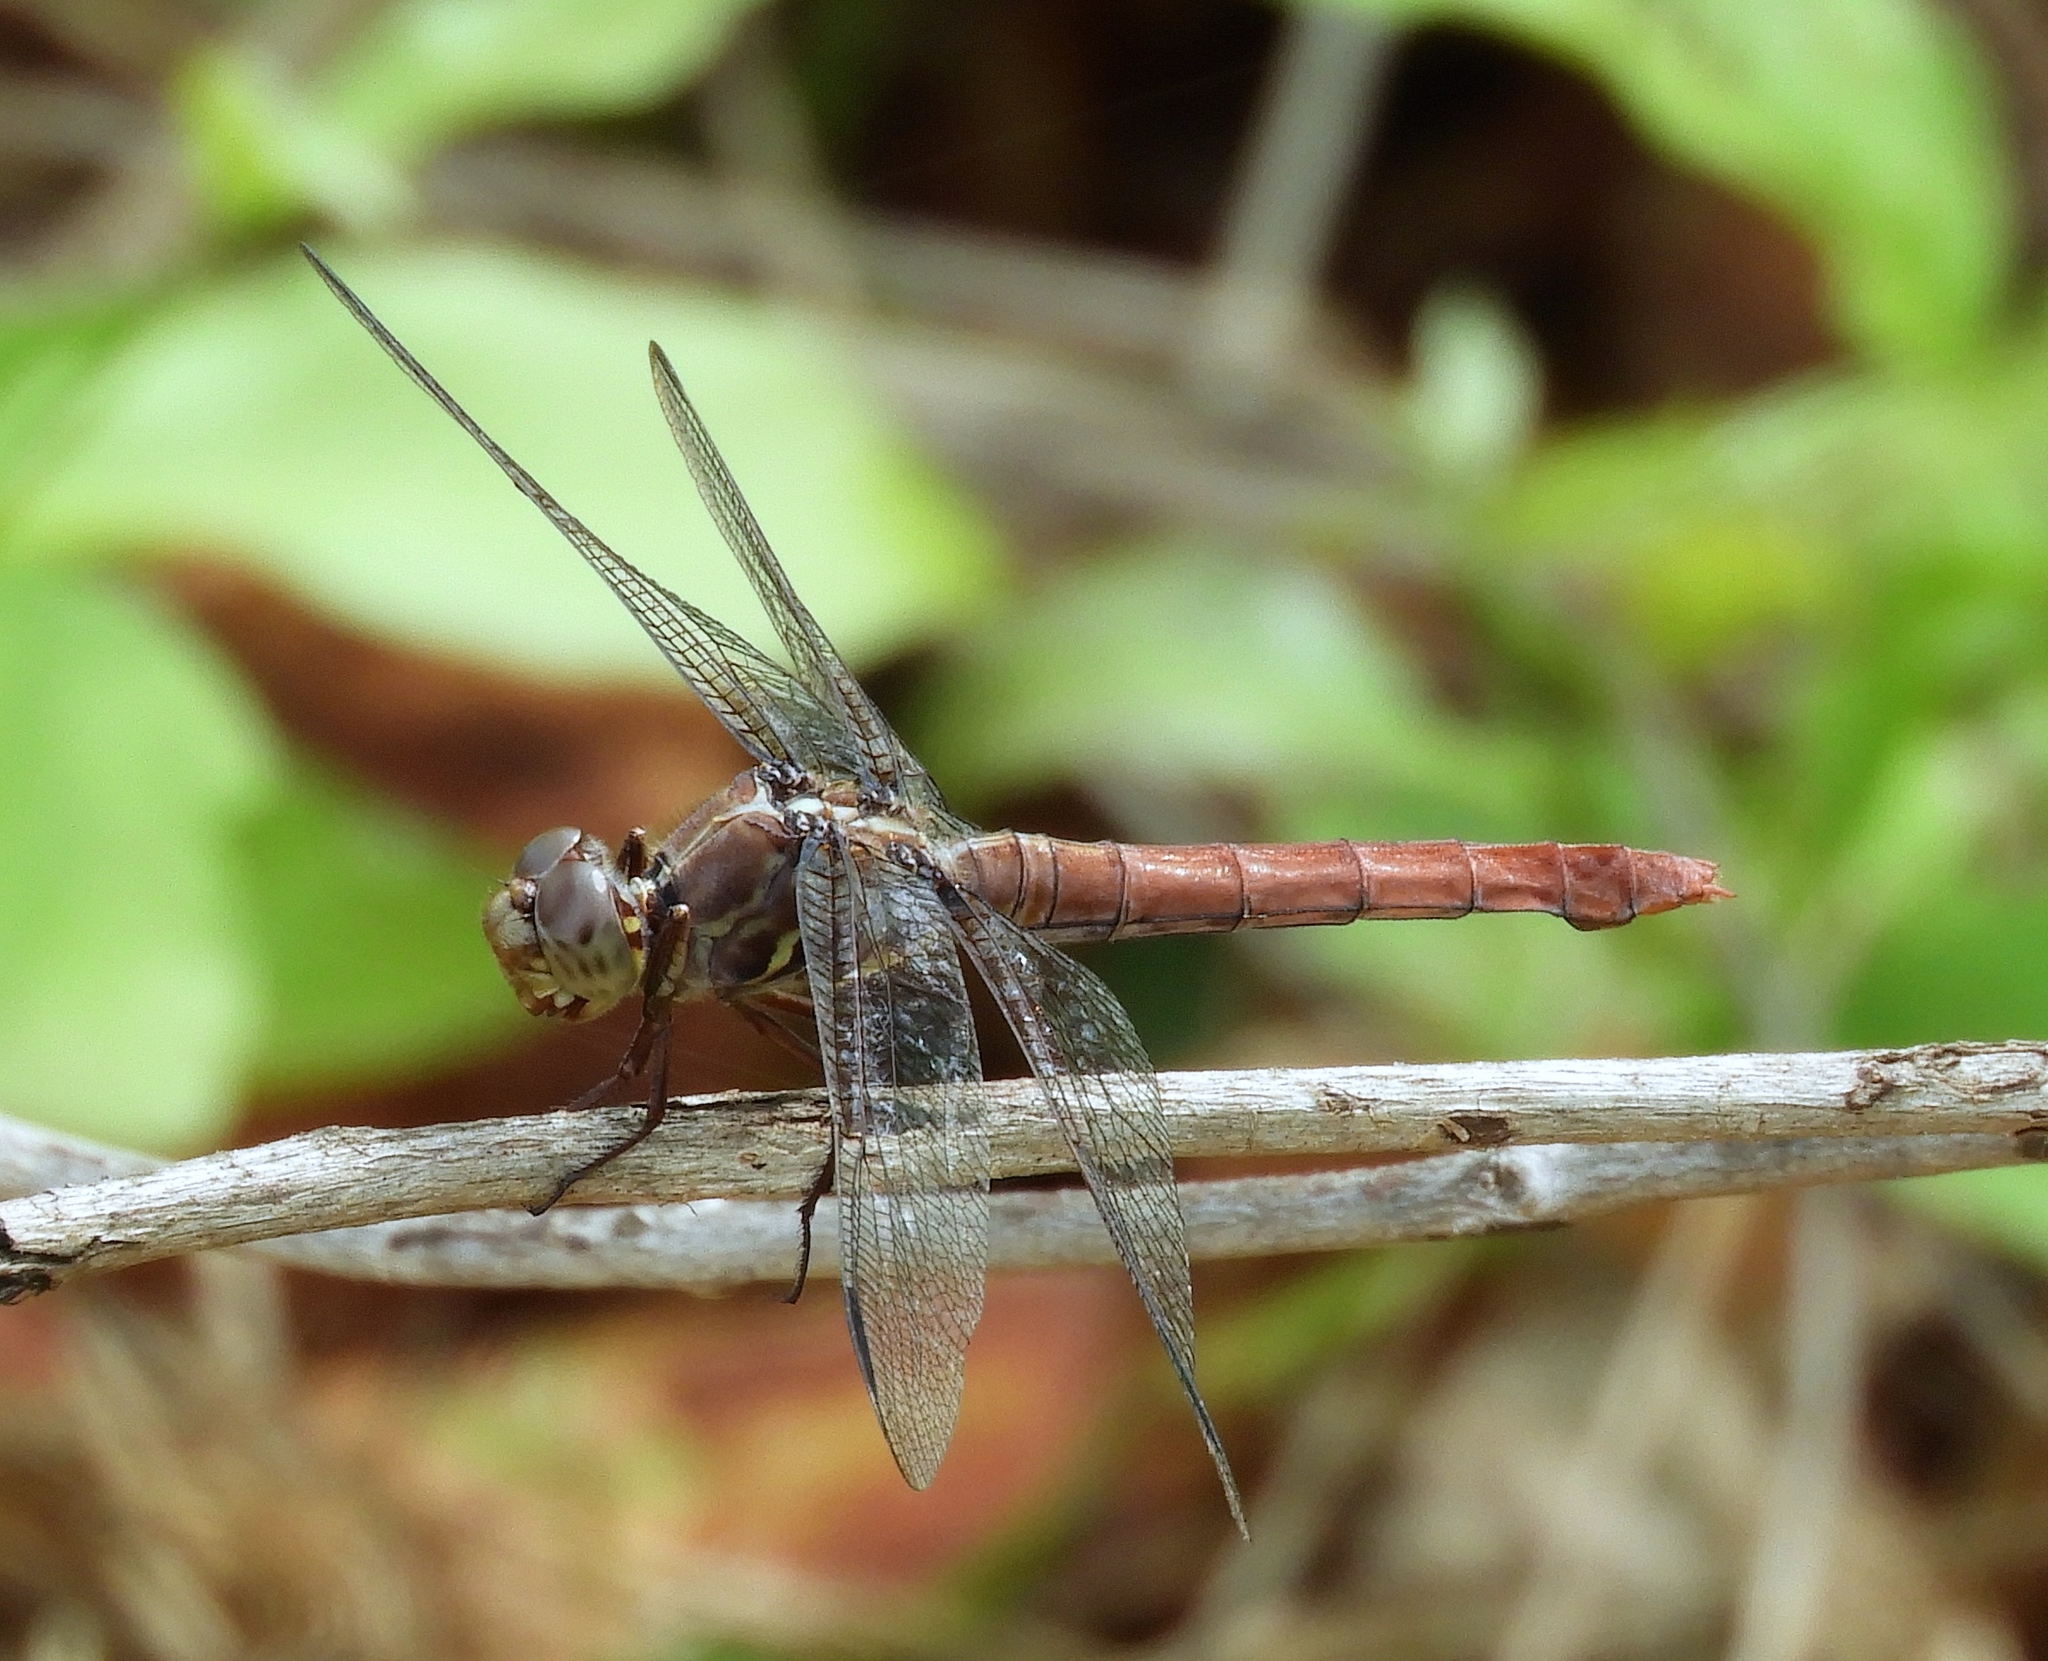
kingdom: Animalia
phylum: Arthropoda
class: Insecta
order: Odonata
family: Libellulidae
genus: Orthemis
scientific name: Orthemis ferruginea
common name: Roseate skimmer
